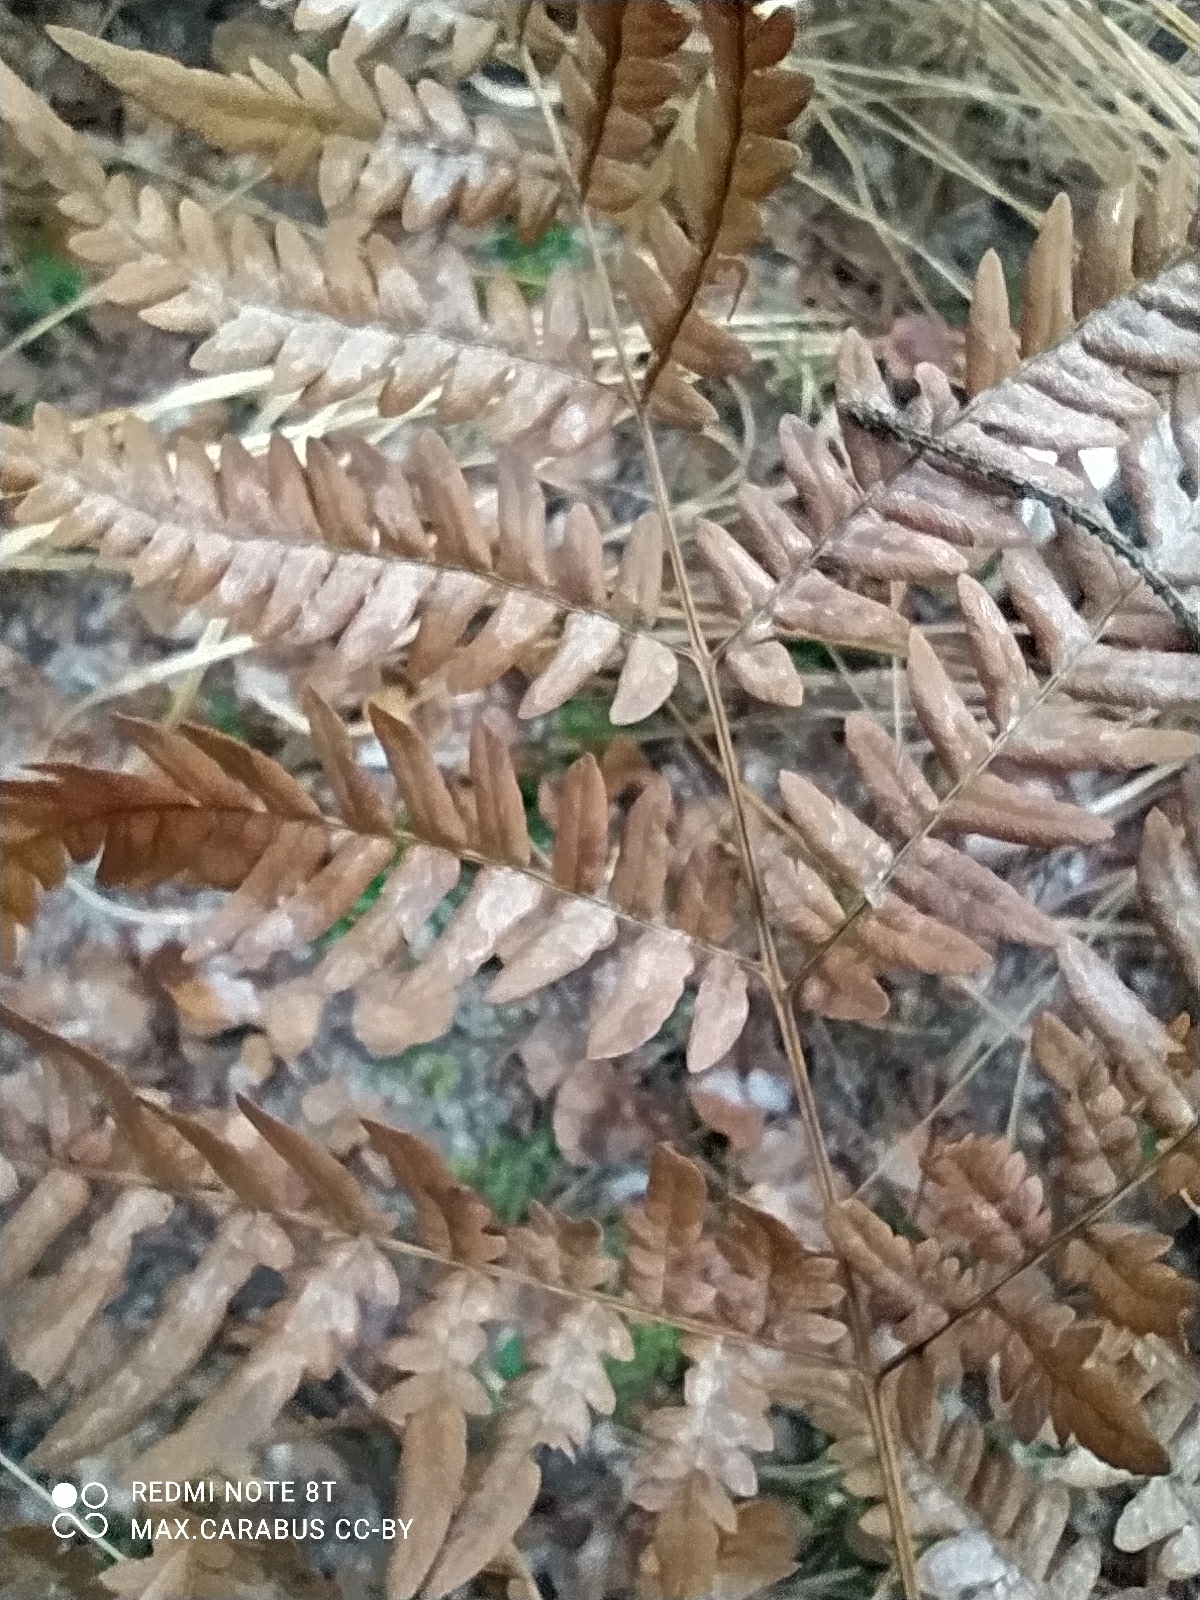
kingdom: Plantae
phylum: Tracheophyta
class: Polypodiopsida
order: Polypodiales
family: Dennstaedtiaceae
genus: Pteridium
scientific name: Pteridium aquilinum
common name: Bracken
